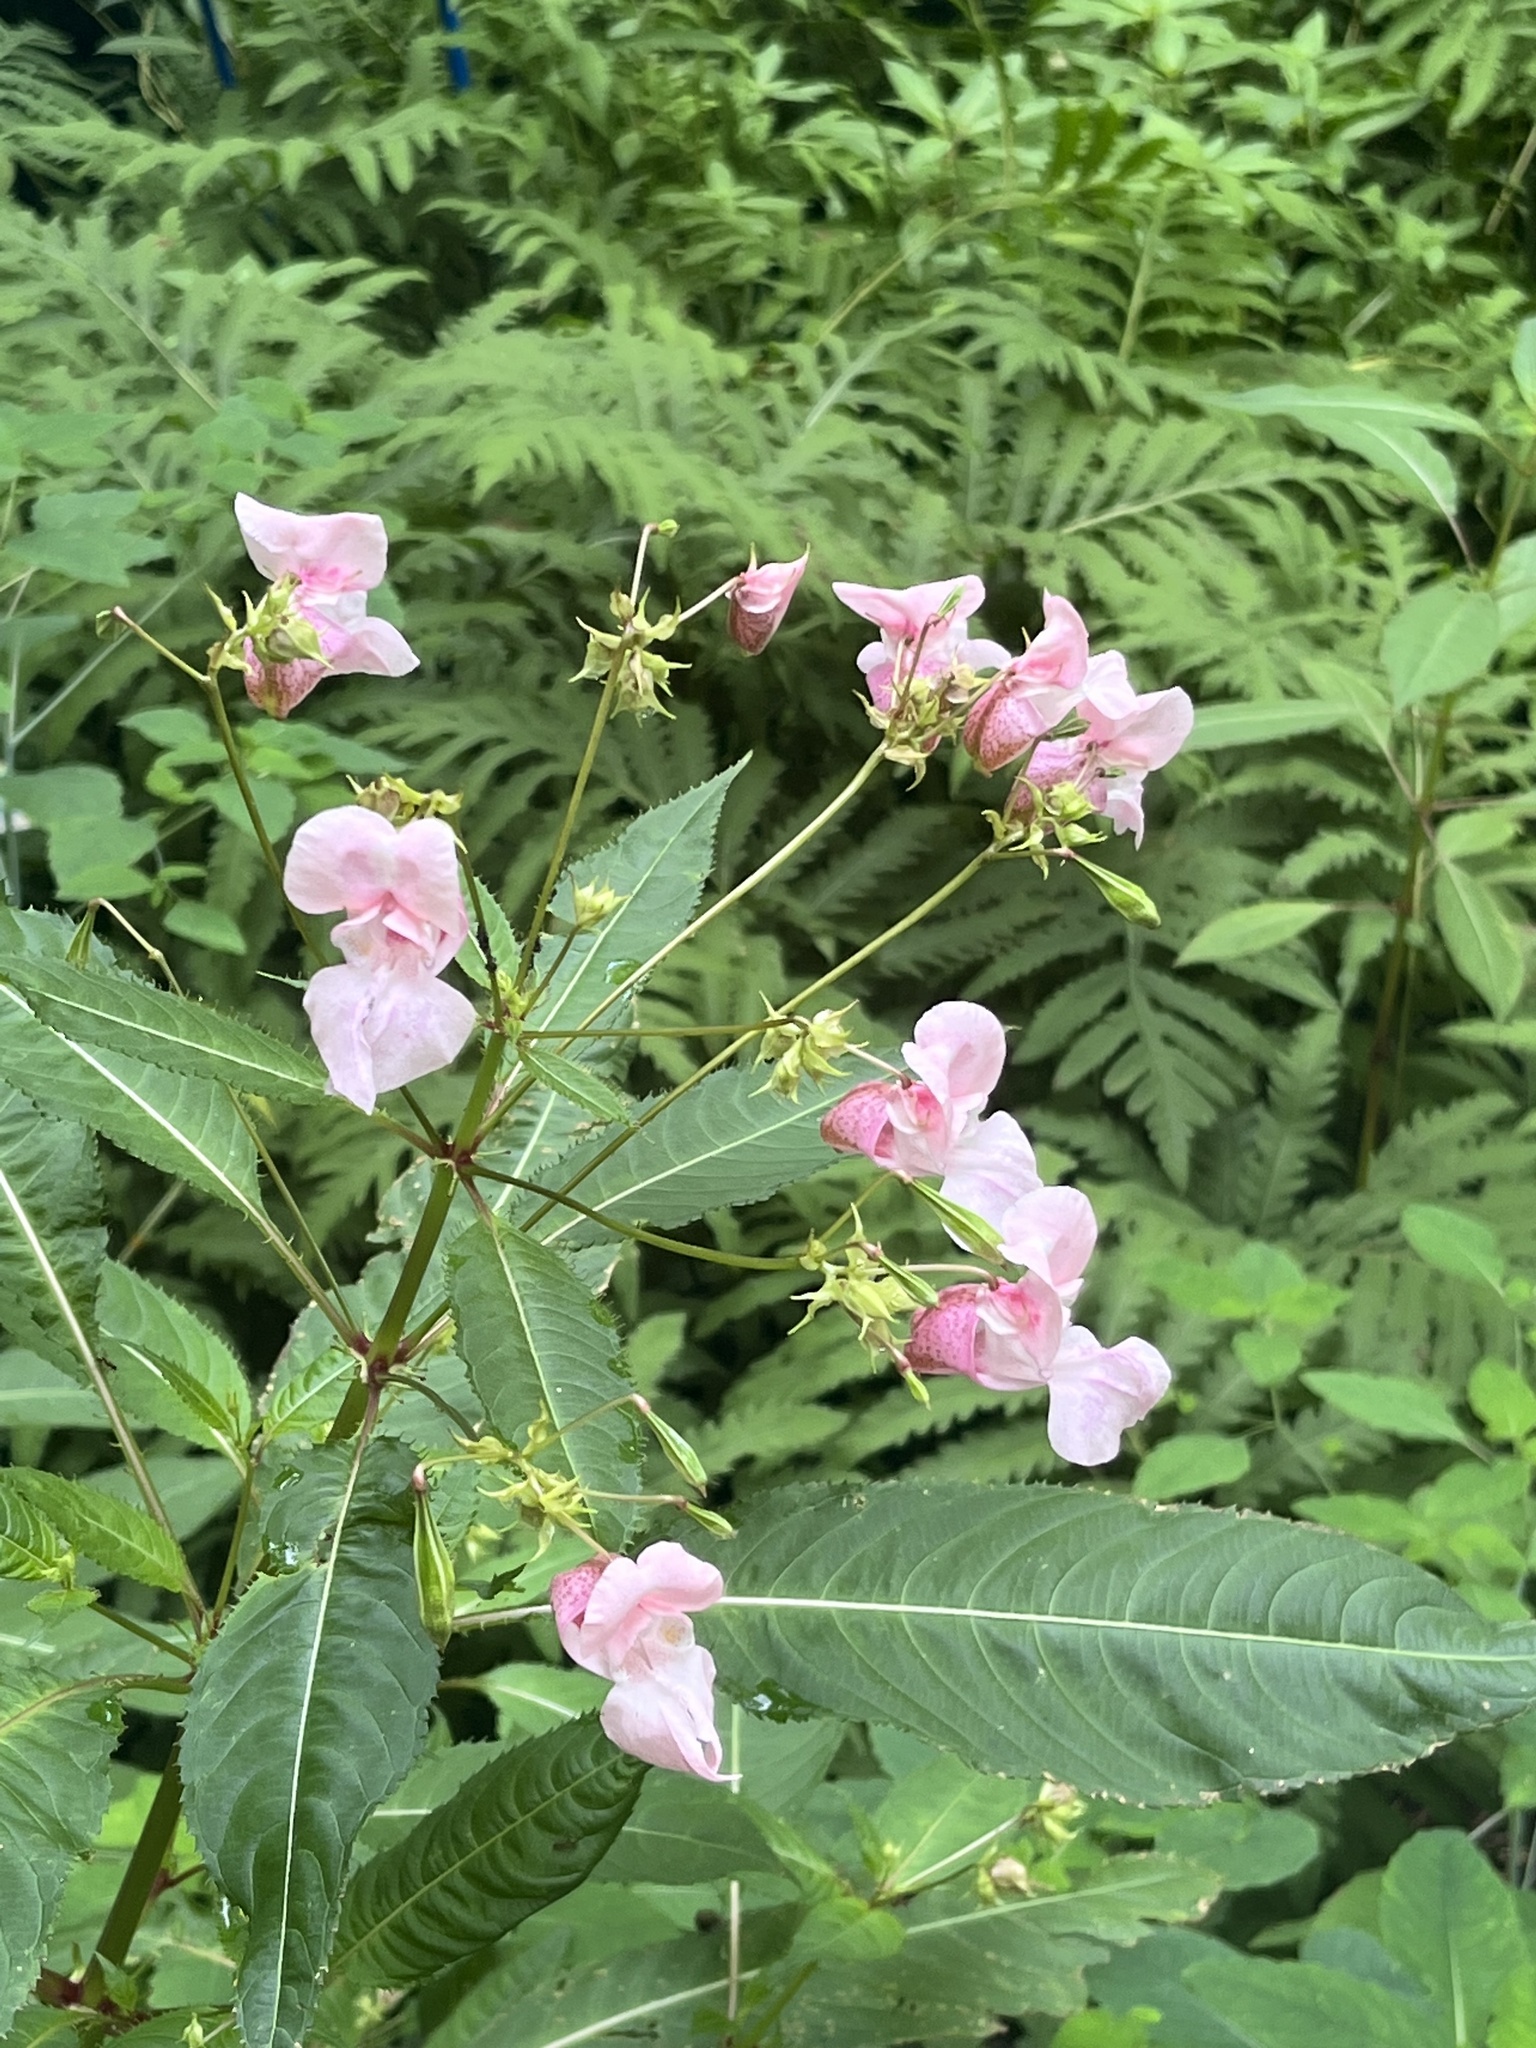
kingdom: Plantae
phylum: Tracheophyta
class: Magnoliopsida
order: Ericales
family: Balsaminaceae
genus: Impatiens
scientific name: Impatiens glandulifera
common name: Himalayan balsam
